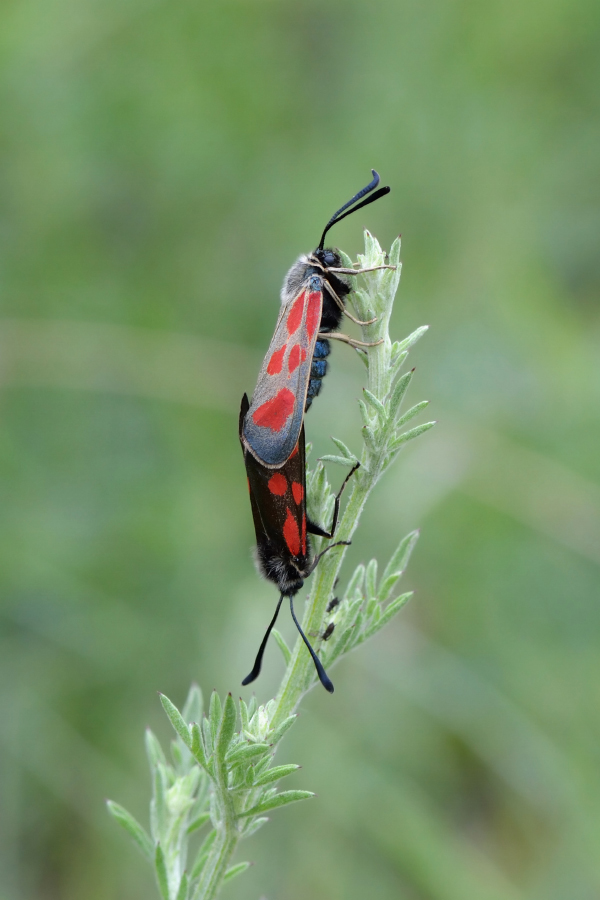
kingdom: Animalia
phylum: Arthropoda
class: Insecta
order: Lepidoptera
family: Zygaenidae
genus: Zygaena
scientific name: Zygaena loti
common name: Slender scotch burnet
